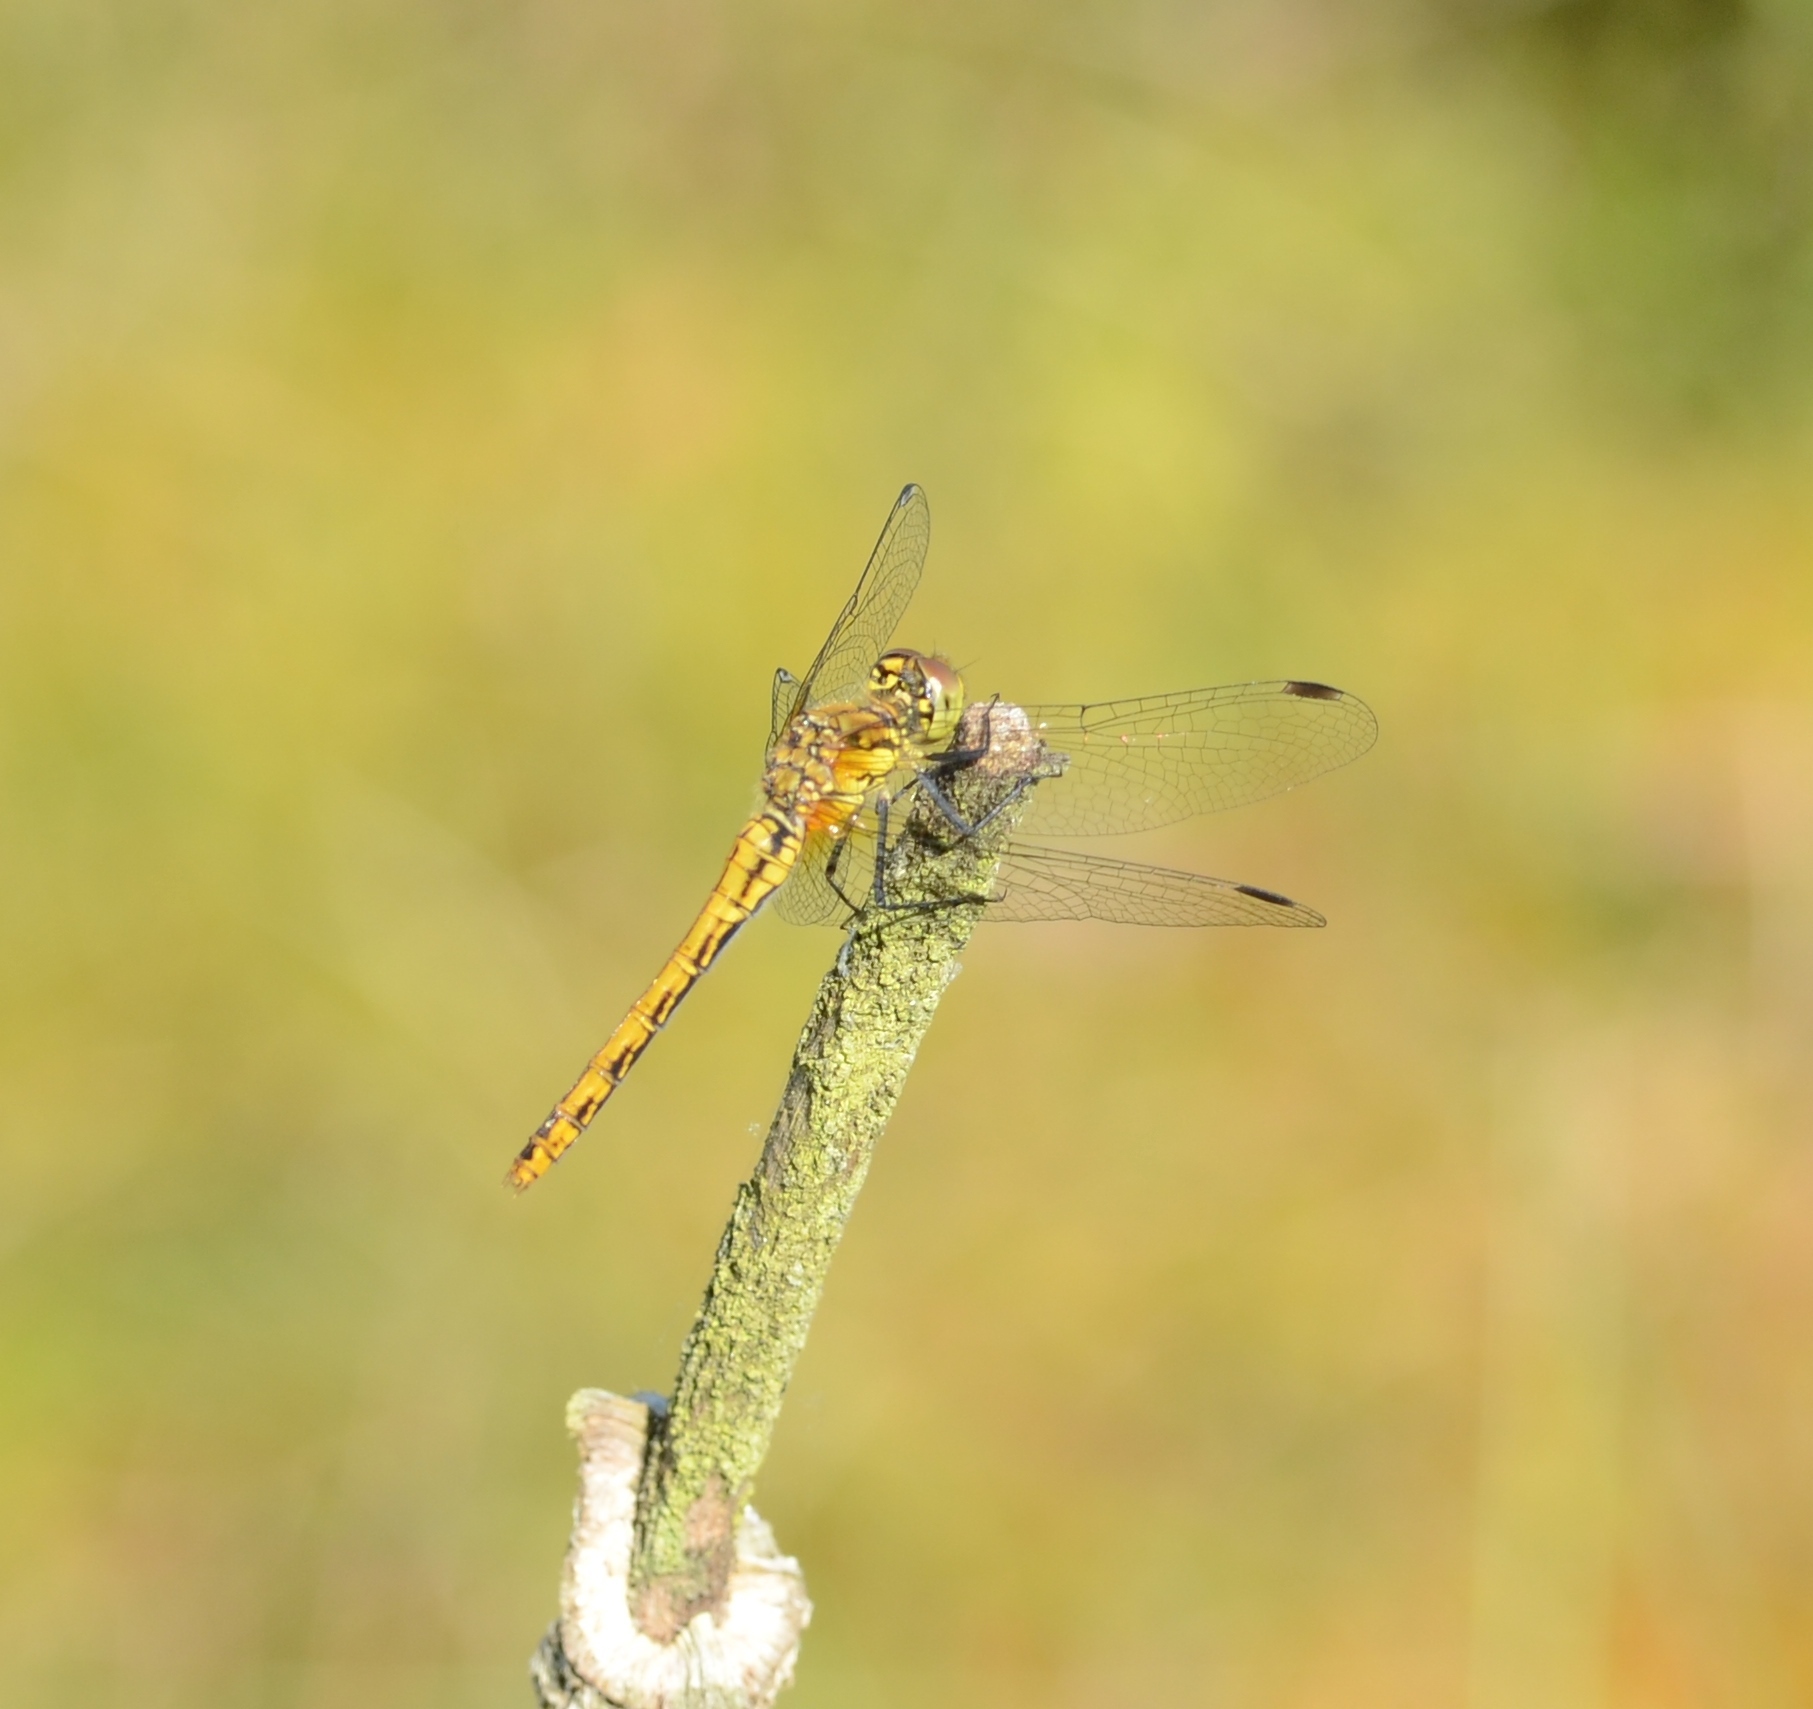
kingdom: Animalia
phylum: Arthropoda
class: Insecta
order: Odonata
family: Libellulidae
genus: Sympetrum
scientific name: Sympetrum sanguineum
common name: Ruddy darter
